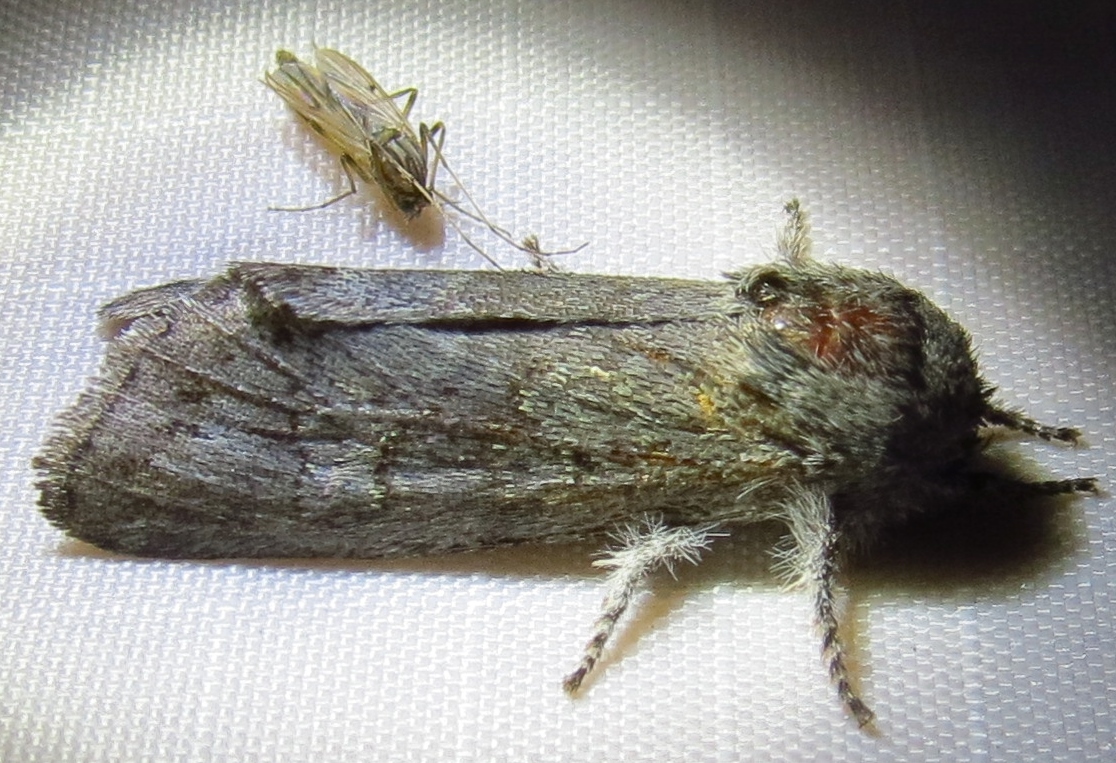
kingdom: Animalia
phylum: Arthropoda
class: Insecta
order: Lepidoptera
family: Noctuidae
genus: Psaphida
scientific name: Psaphida rolandi
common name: Roland's sallow
